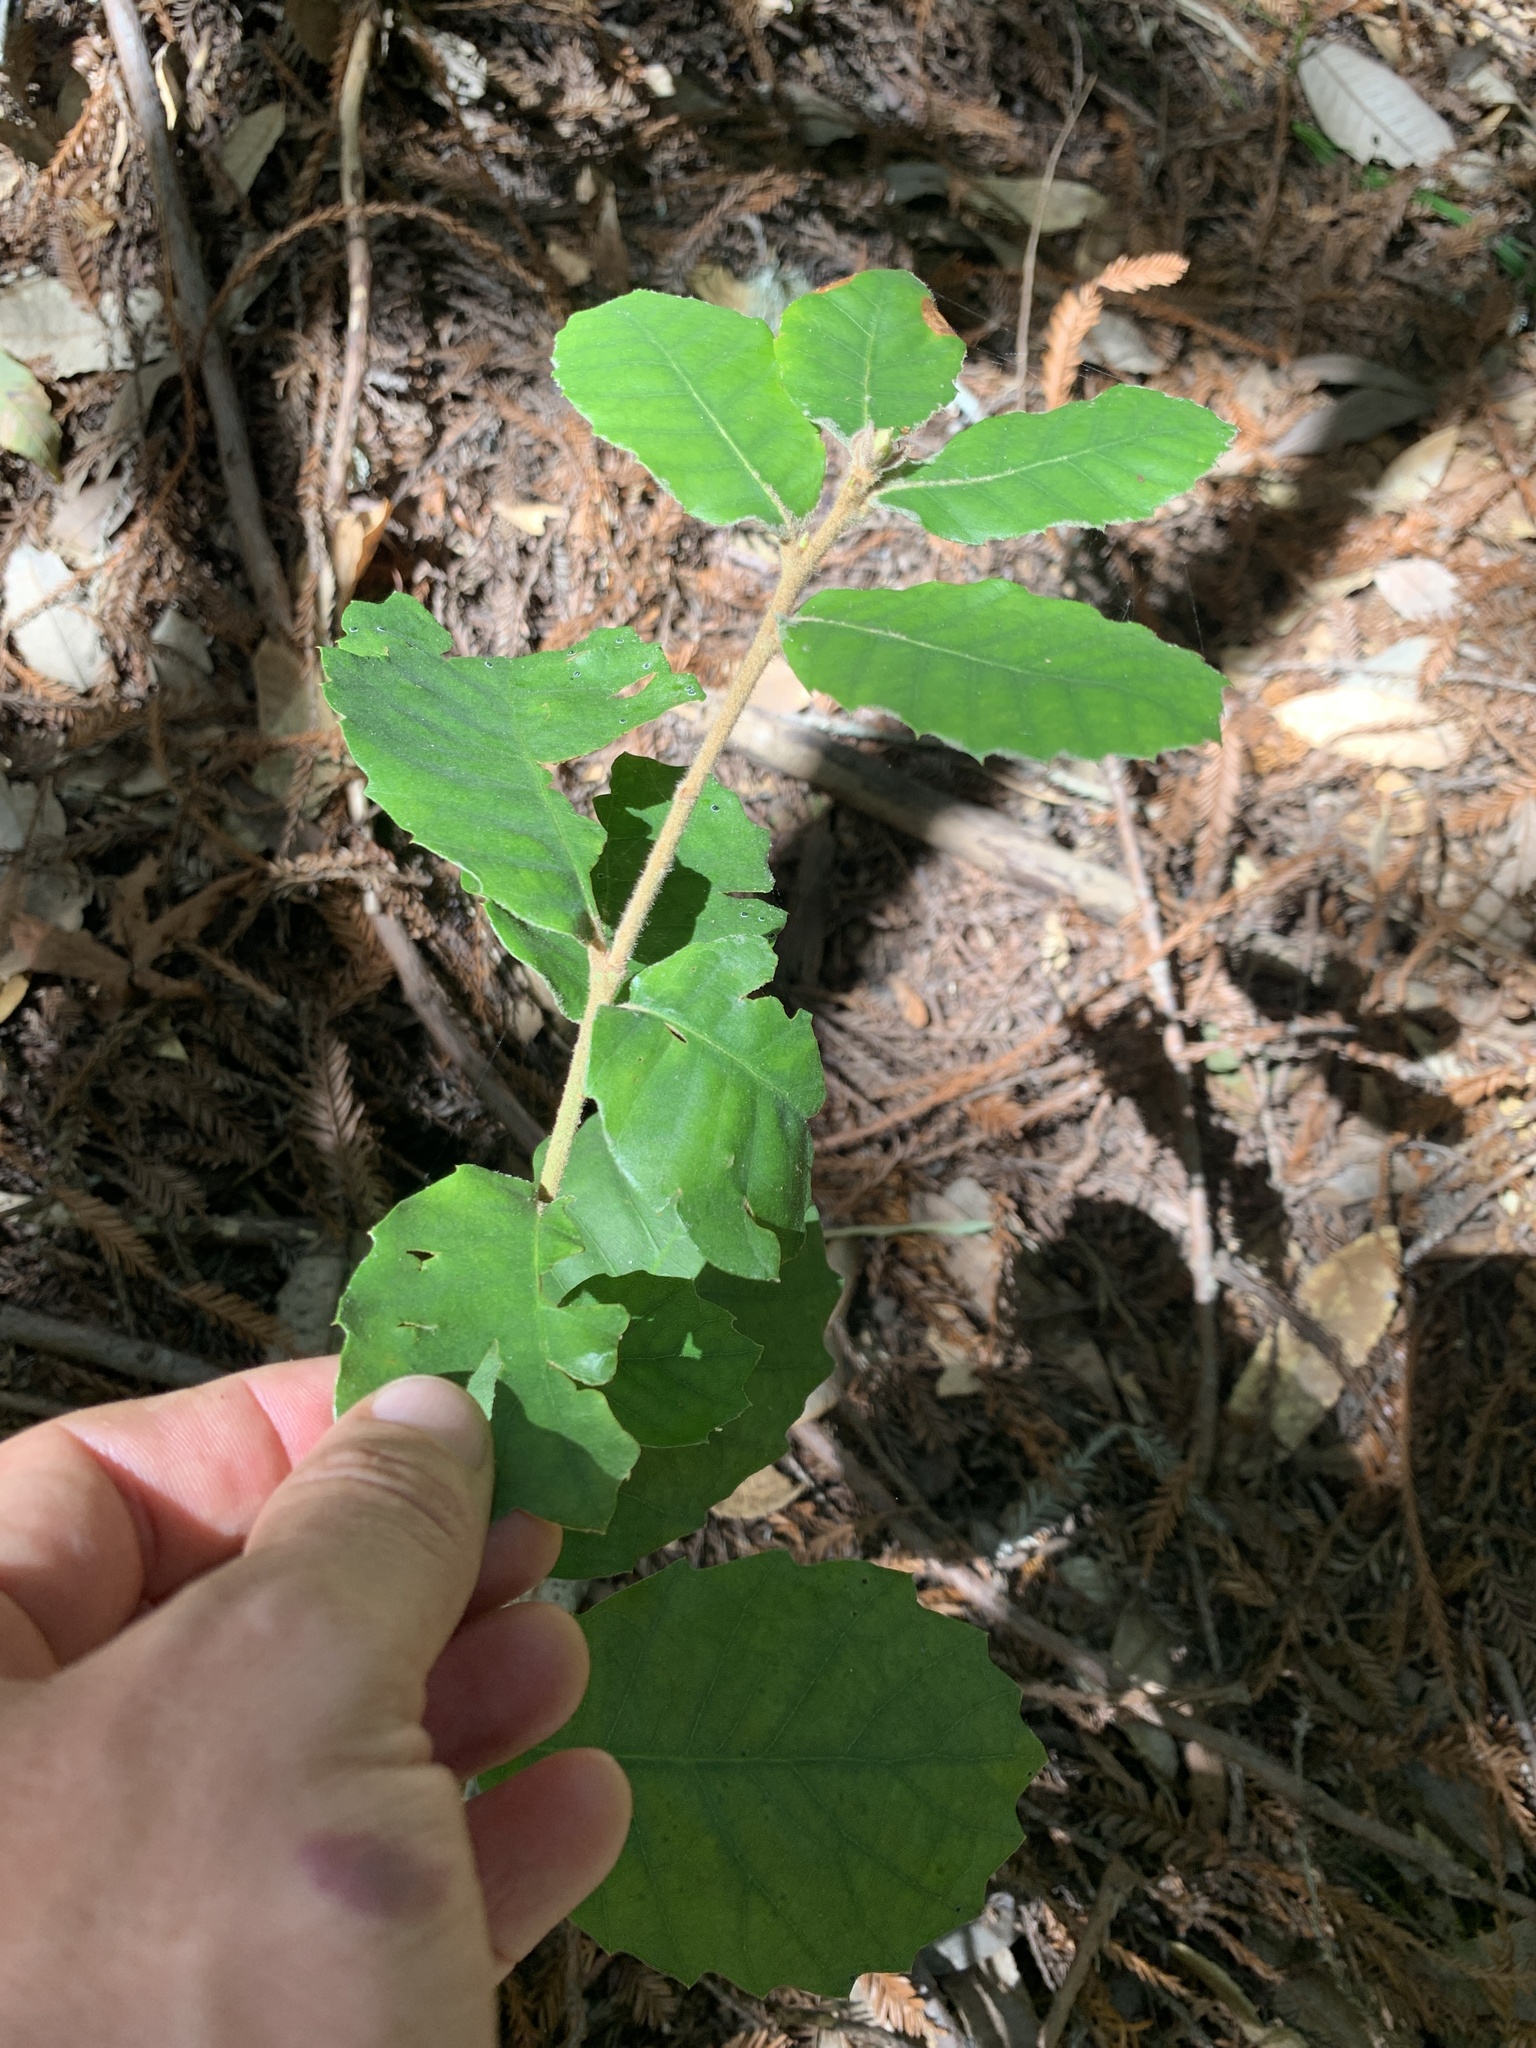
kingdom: Plantae
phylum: Tracheophyta
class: Magnoliopsida
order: Fagales
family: Fagaceae
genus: Notholithocarpus
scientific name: Notholithocarpus densiflorus
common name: Tan bark oak
